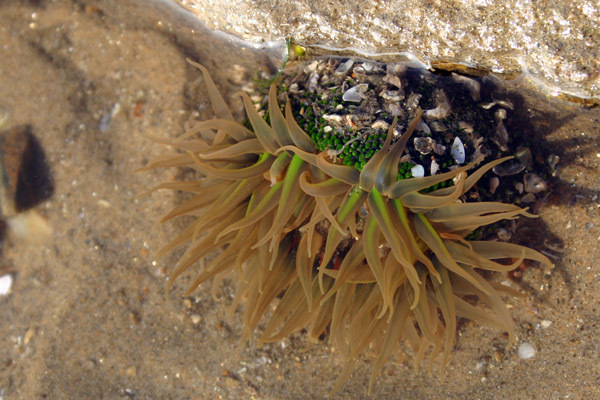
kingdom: Animalia
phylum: Cnidaria
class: Anthozoa
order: Actiniaria
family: Actiniidae
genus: Anthopleura
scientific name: Anthopleura fuscoviridis
